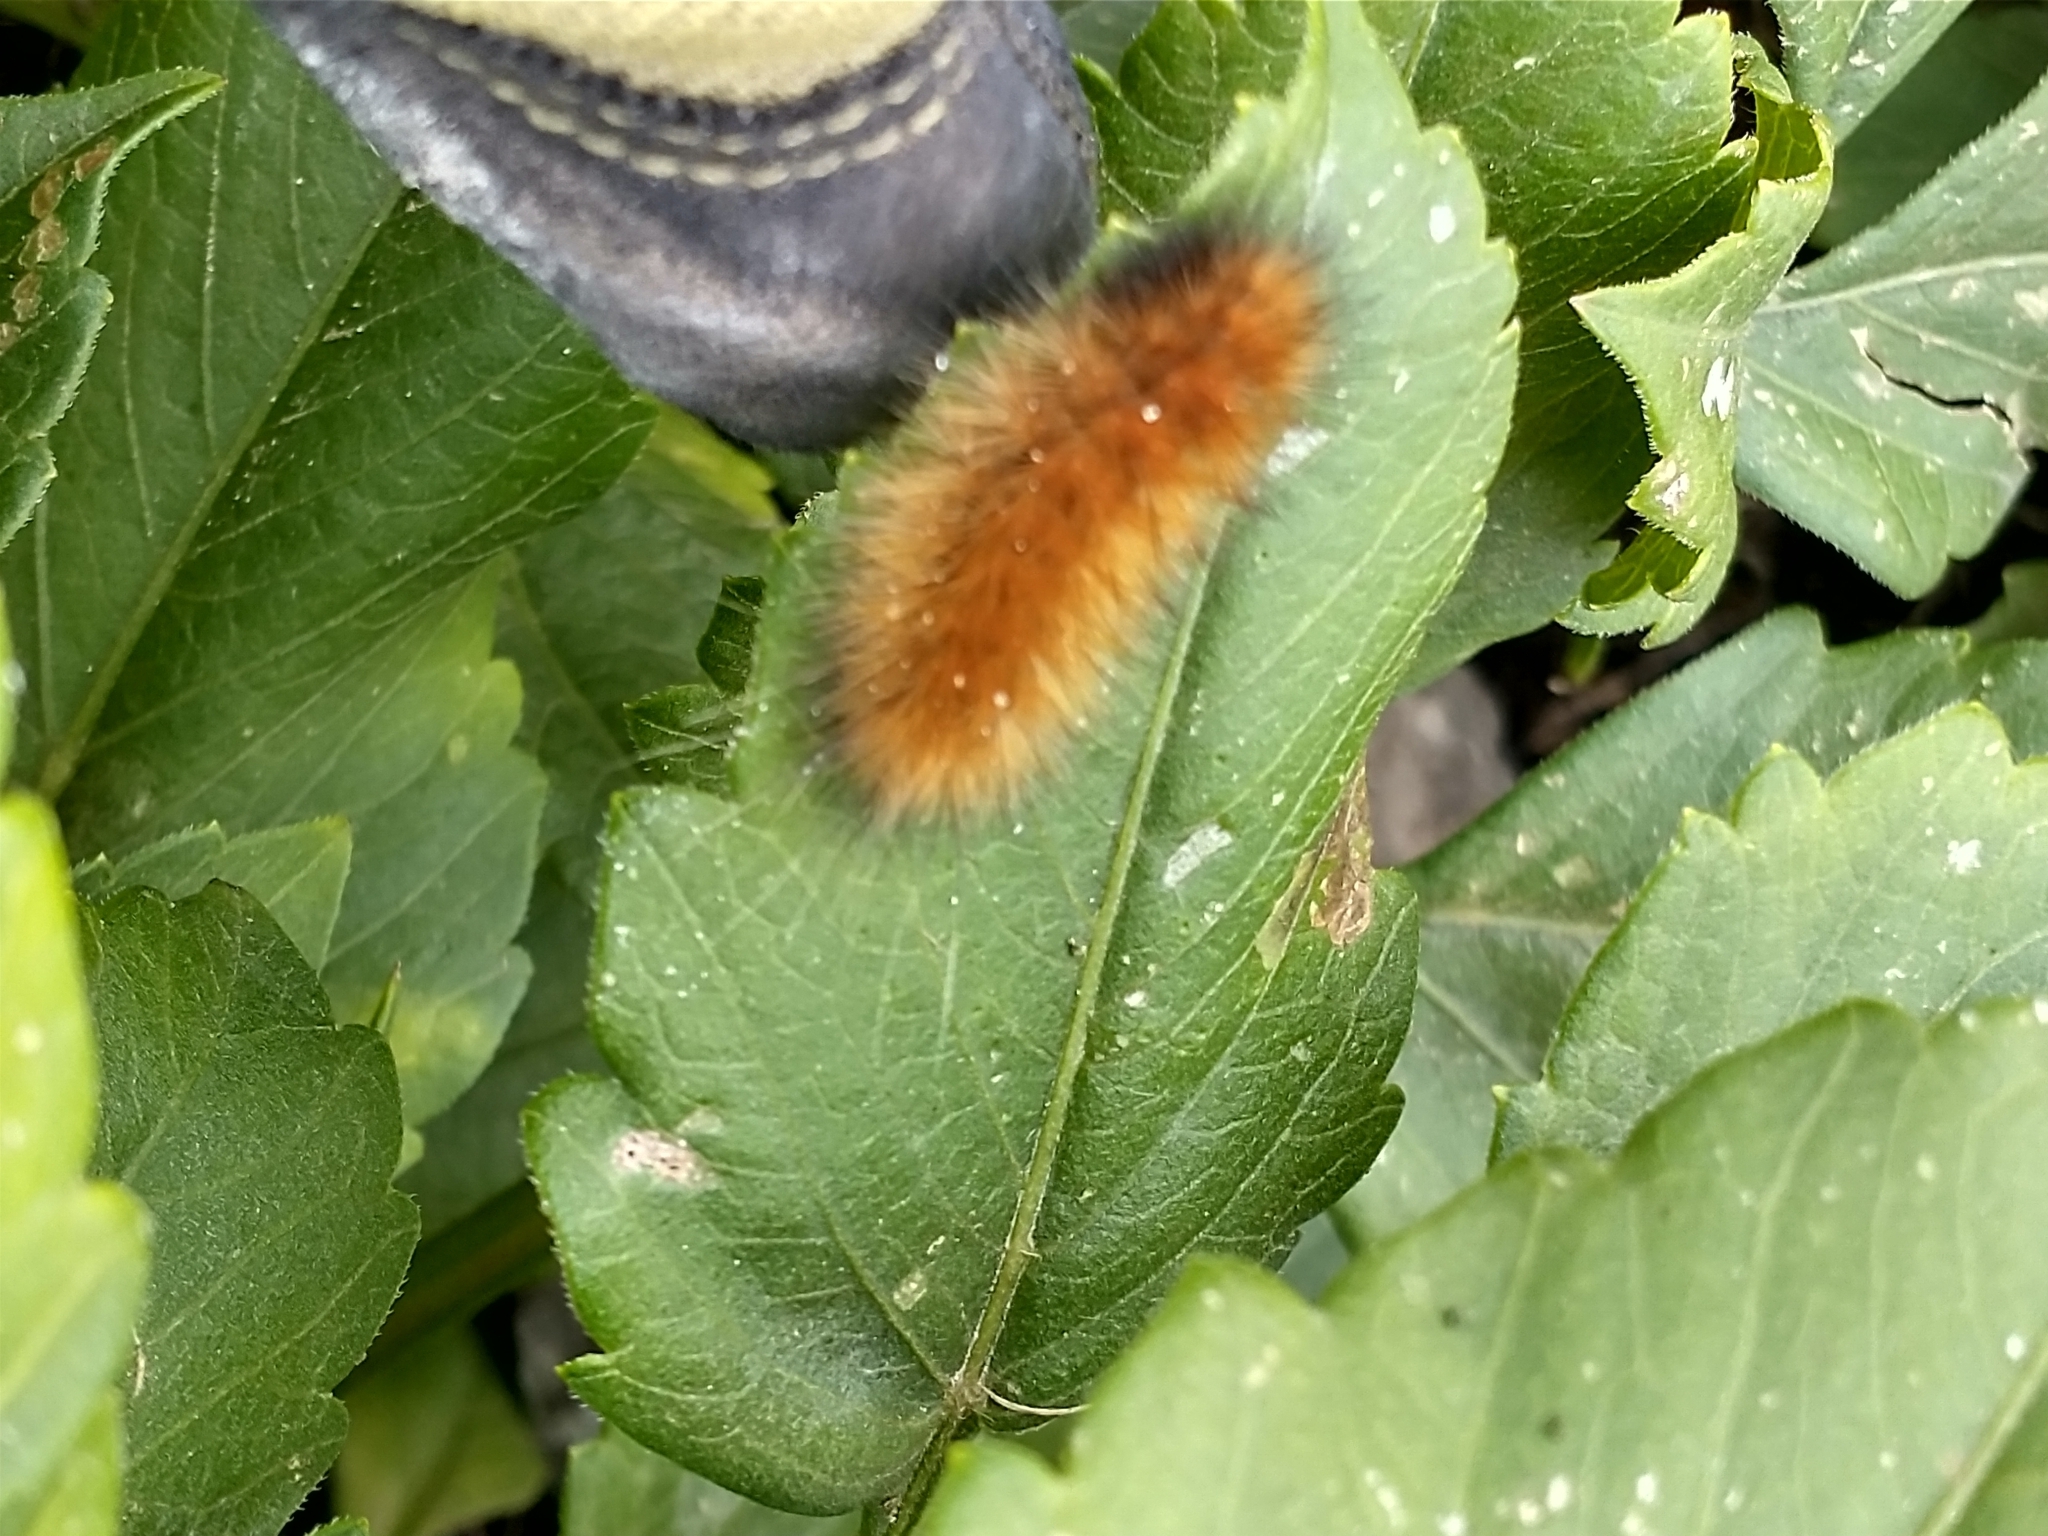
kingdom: Animalia
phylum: Arthropoda
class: Insecta
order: Lepidoptera
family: Erebidae
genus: Spilosoma
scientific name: Spilosoma virginica
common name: Virginia tiger moth
